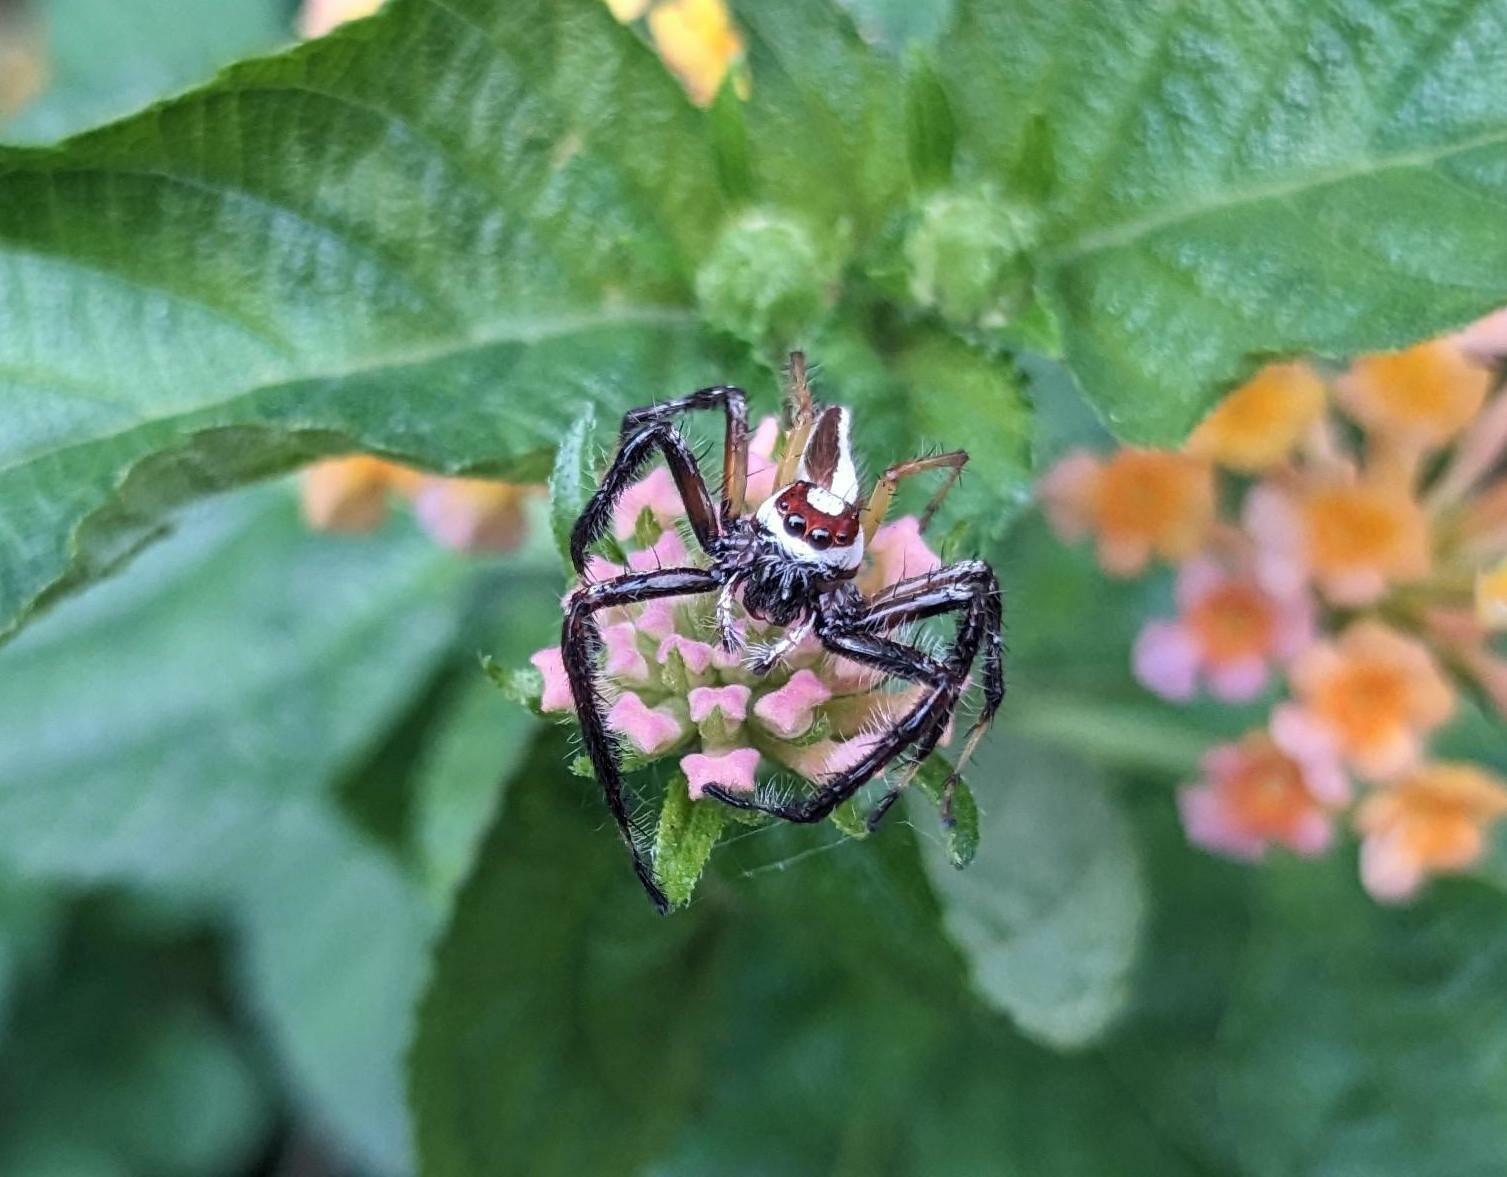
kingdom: Animalia
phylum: Arthropoda
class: Arachnida
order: Araneae
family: Salticidae
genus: Telamonia
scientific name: Telamonia dimidiata
